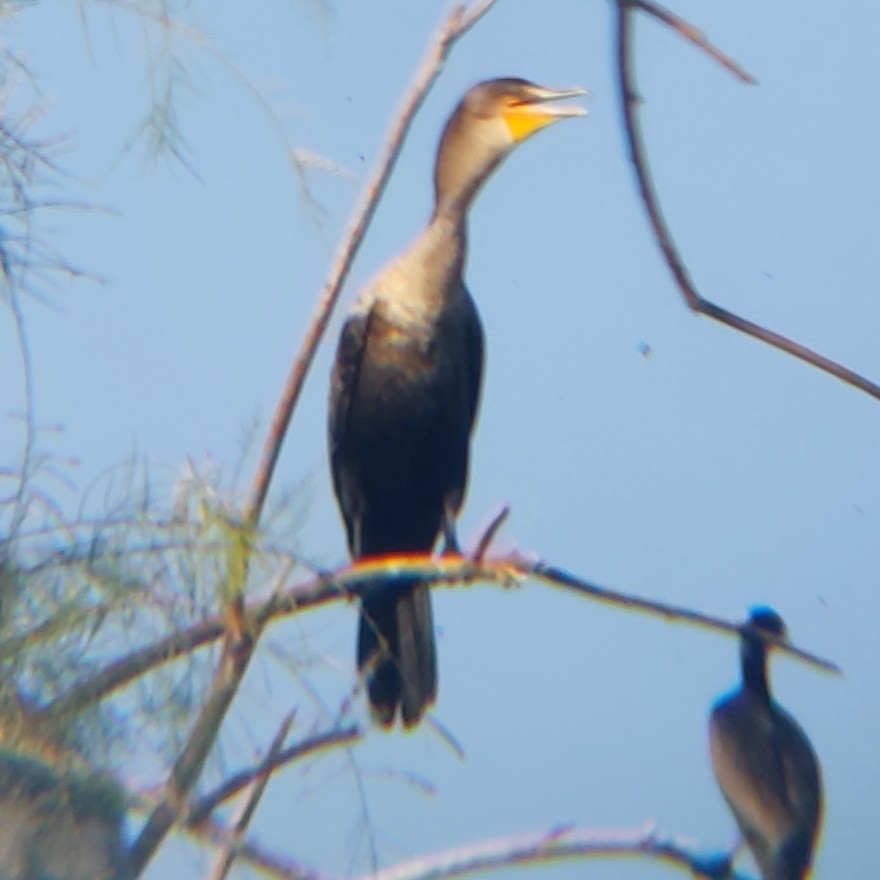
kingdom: Animalia
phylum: Chordata
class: Aves
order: Suliformes
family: Phalacrocoracidae
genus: Phalacrocorax
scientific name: Phalacrocorax auritus
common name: Double-crested cormorant
